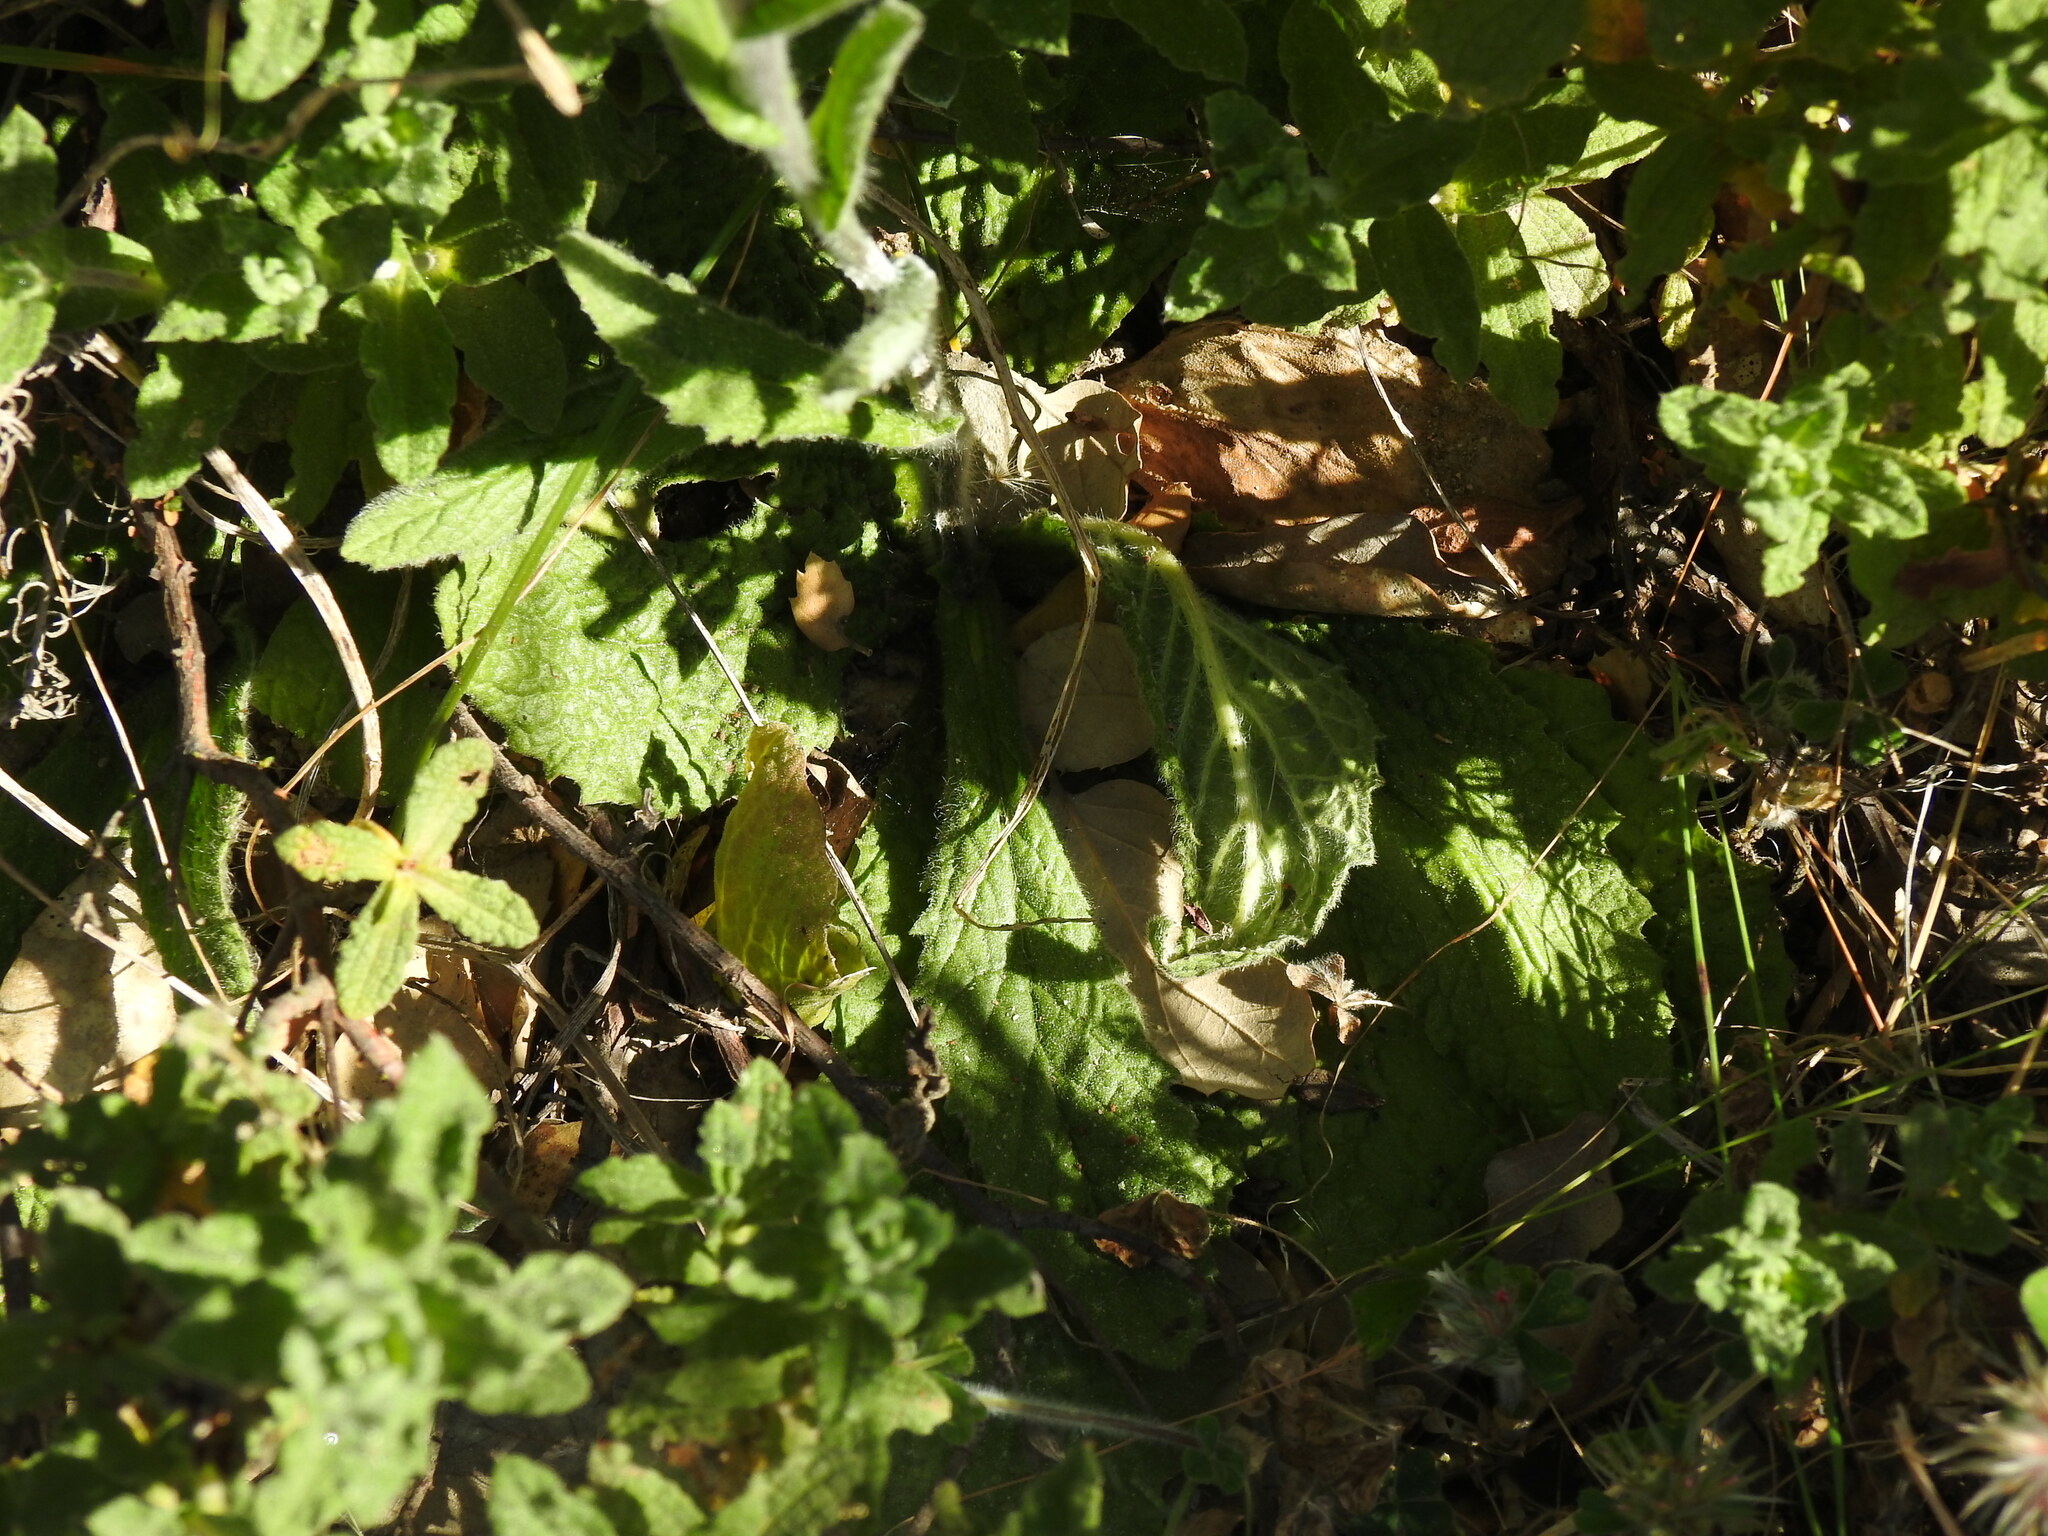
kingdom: Plantae
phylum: Tracheophyta
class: Magnoliopsida
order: Asterales
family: Asteraceae
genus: Pulicaria
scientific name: Pulicaria odora
